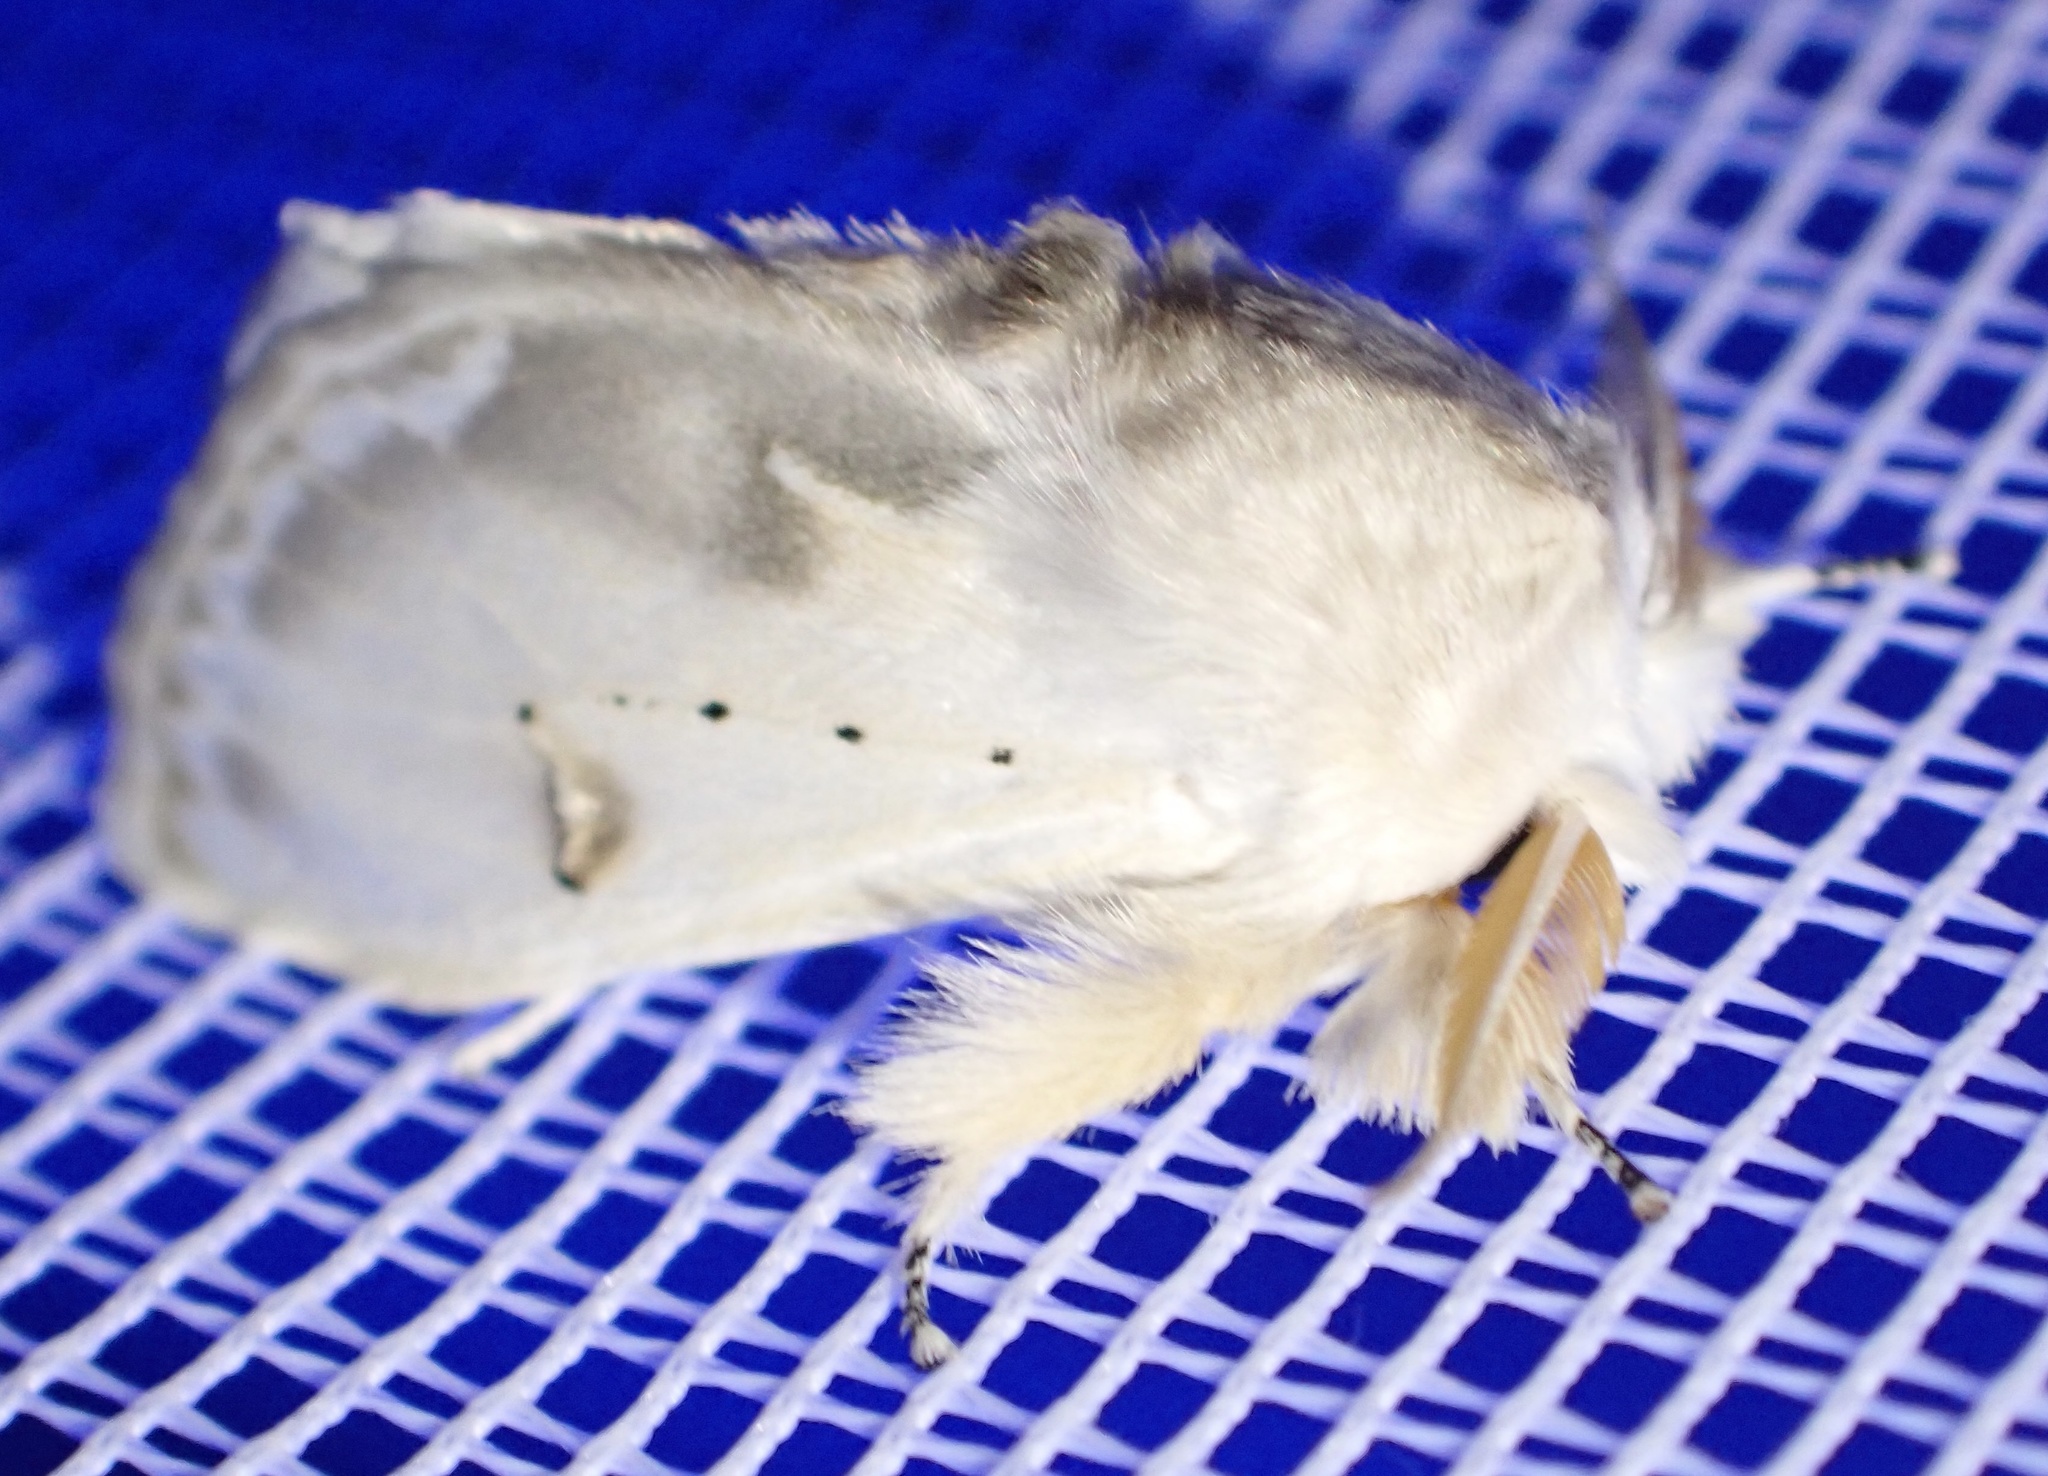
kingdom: Animalia
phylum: Arthropoda
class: Insecta
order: Lepidoptera
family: Erebidae
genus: Naroma
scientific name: Naroma varipes
